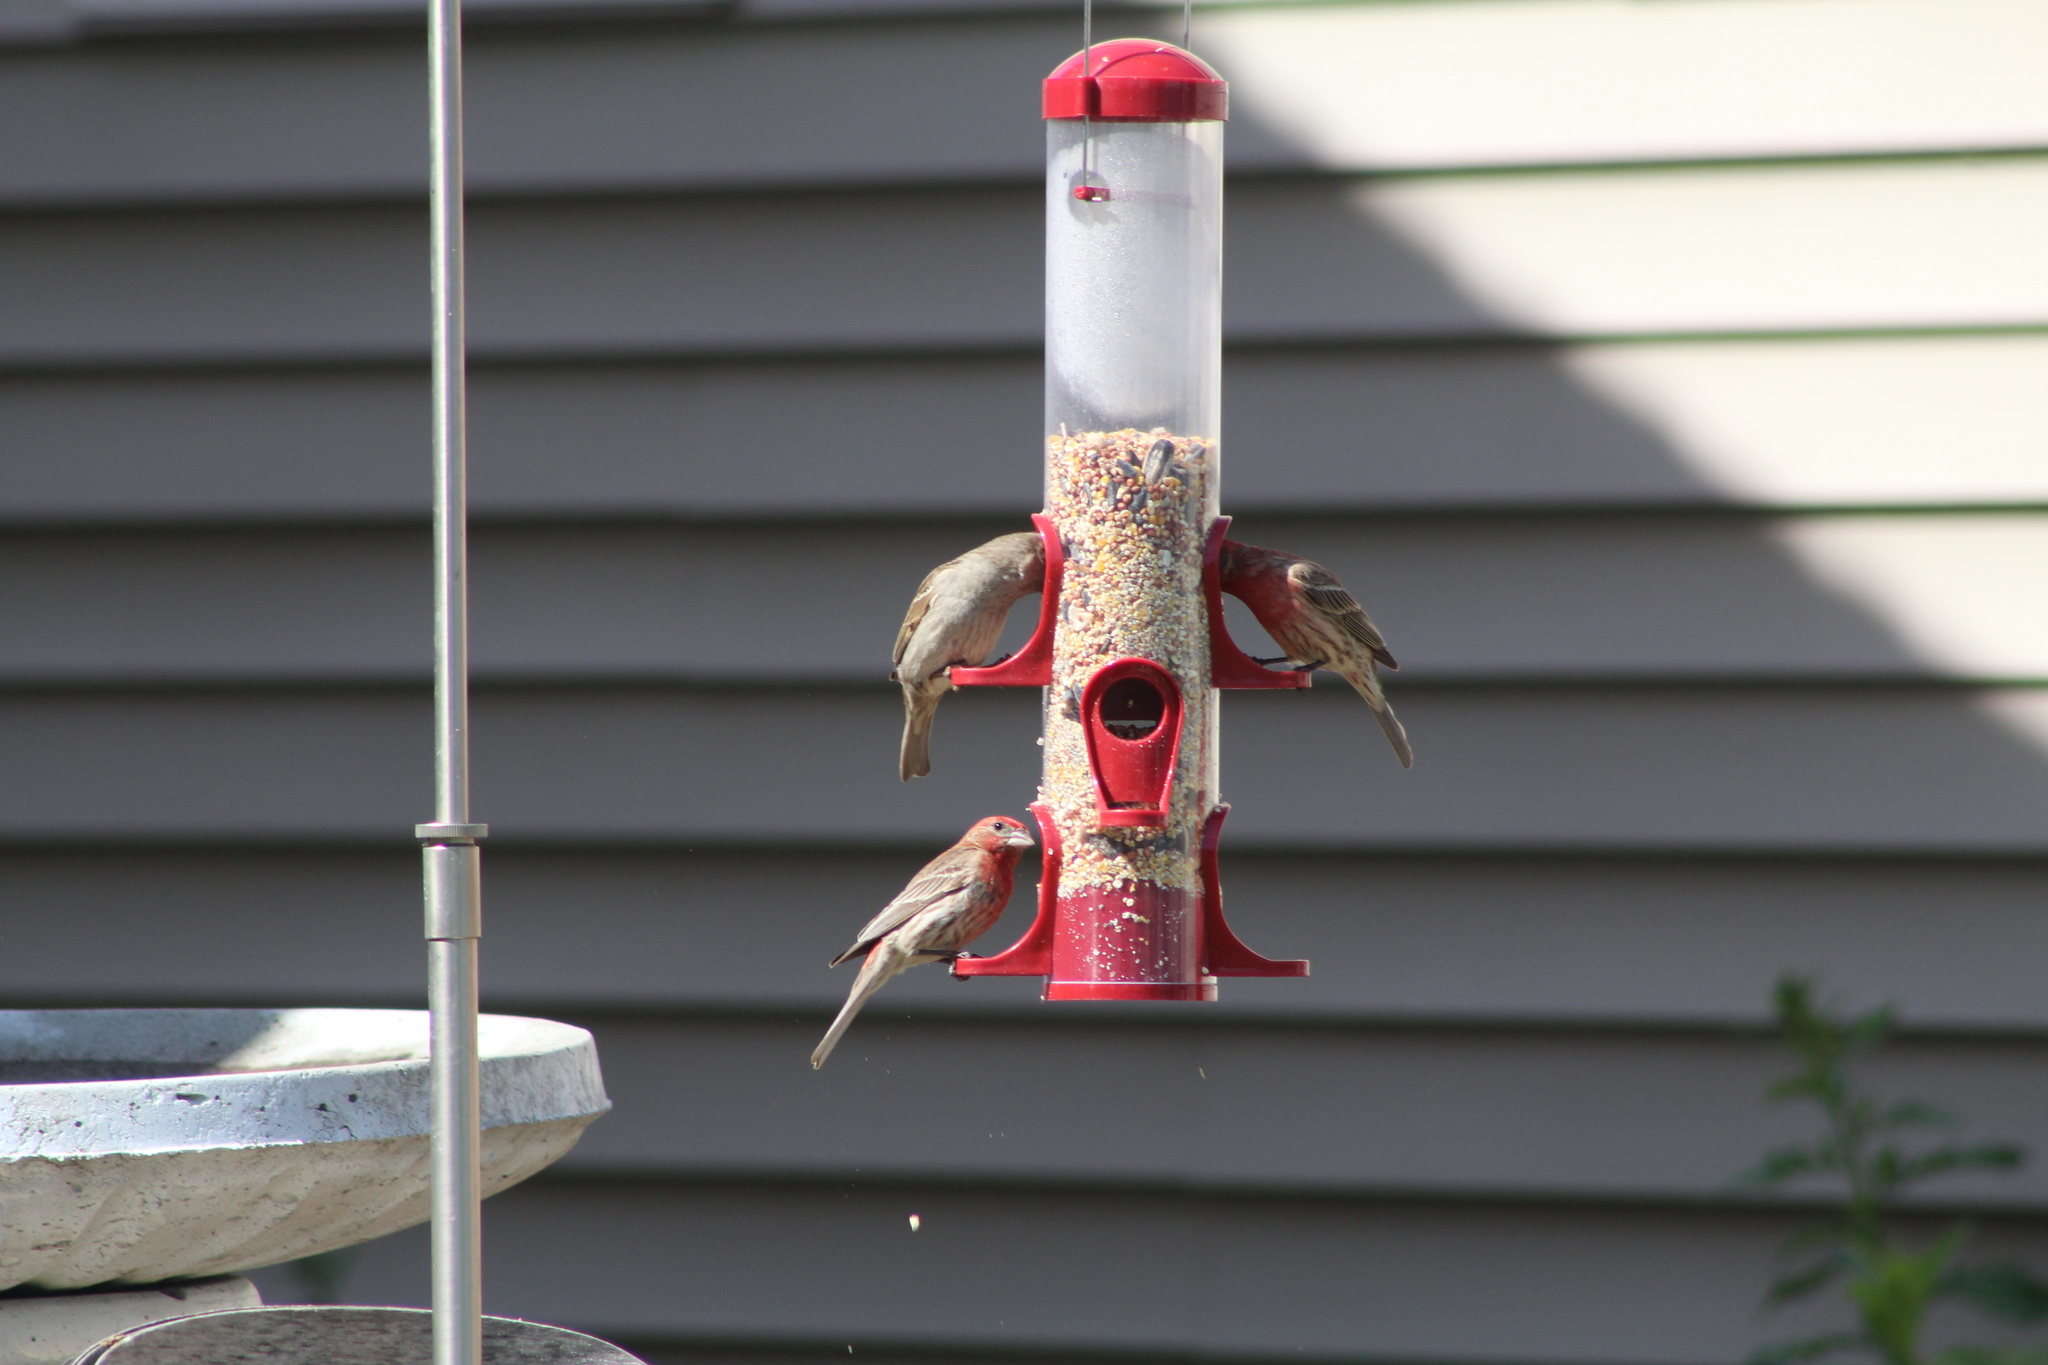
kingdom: Animalia
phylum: Chordata
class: Aves
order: Passeriformes
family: Fringillidae
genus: Haemorhous
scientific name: Haemorhous mexicanus
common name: House finch
